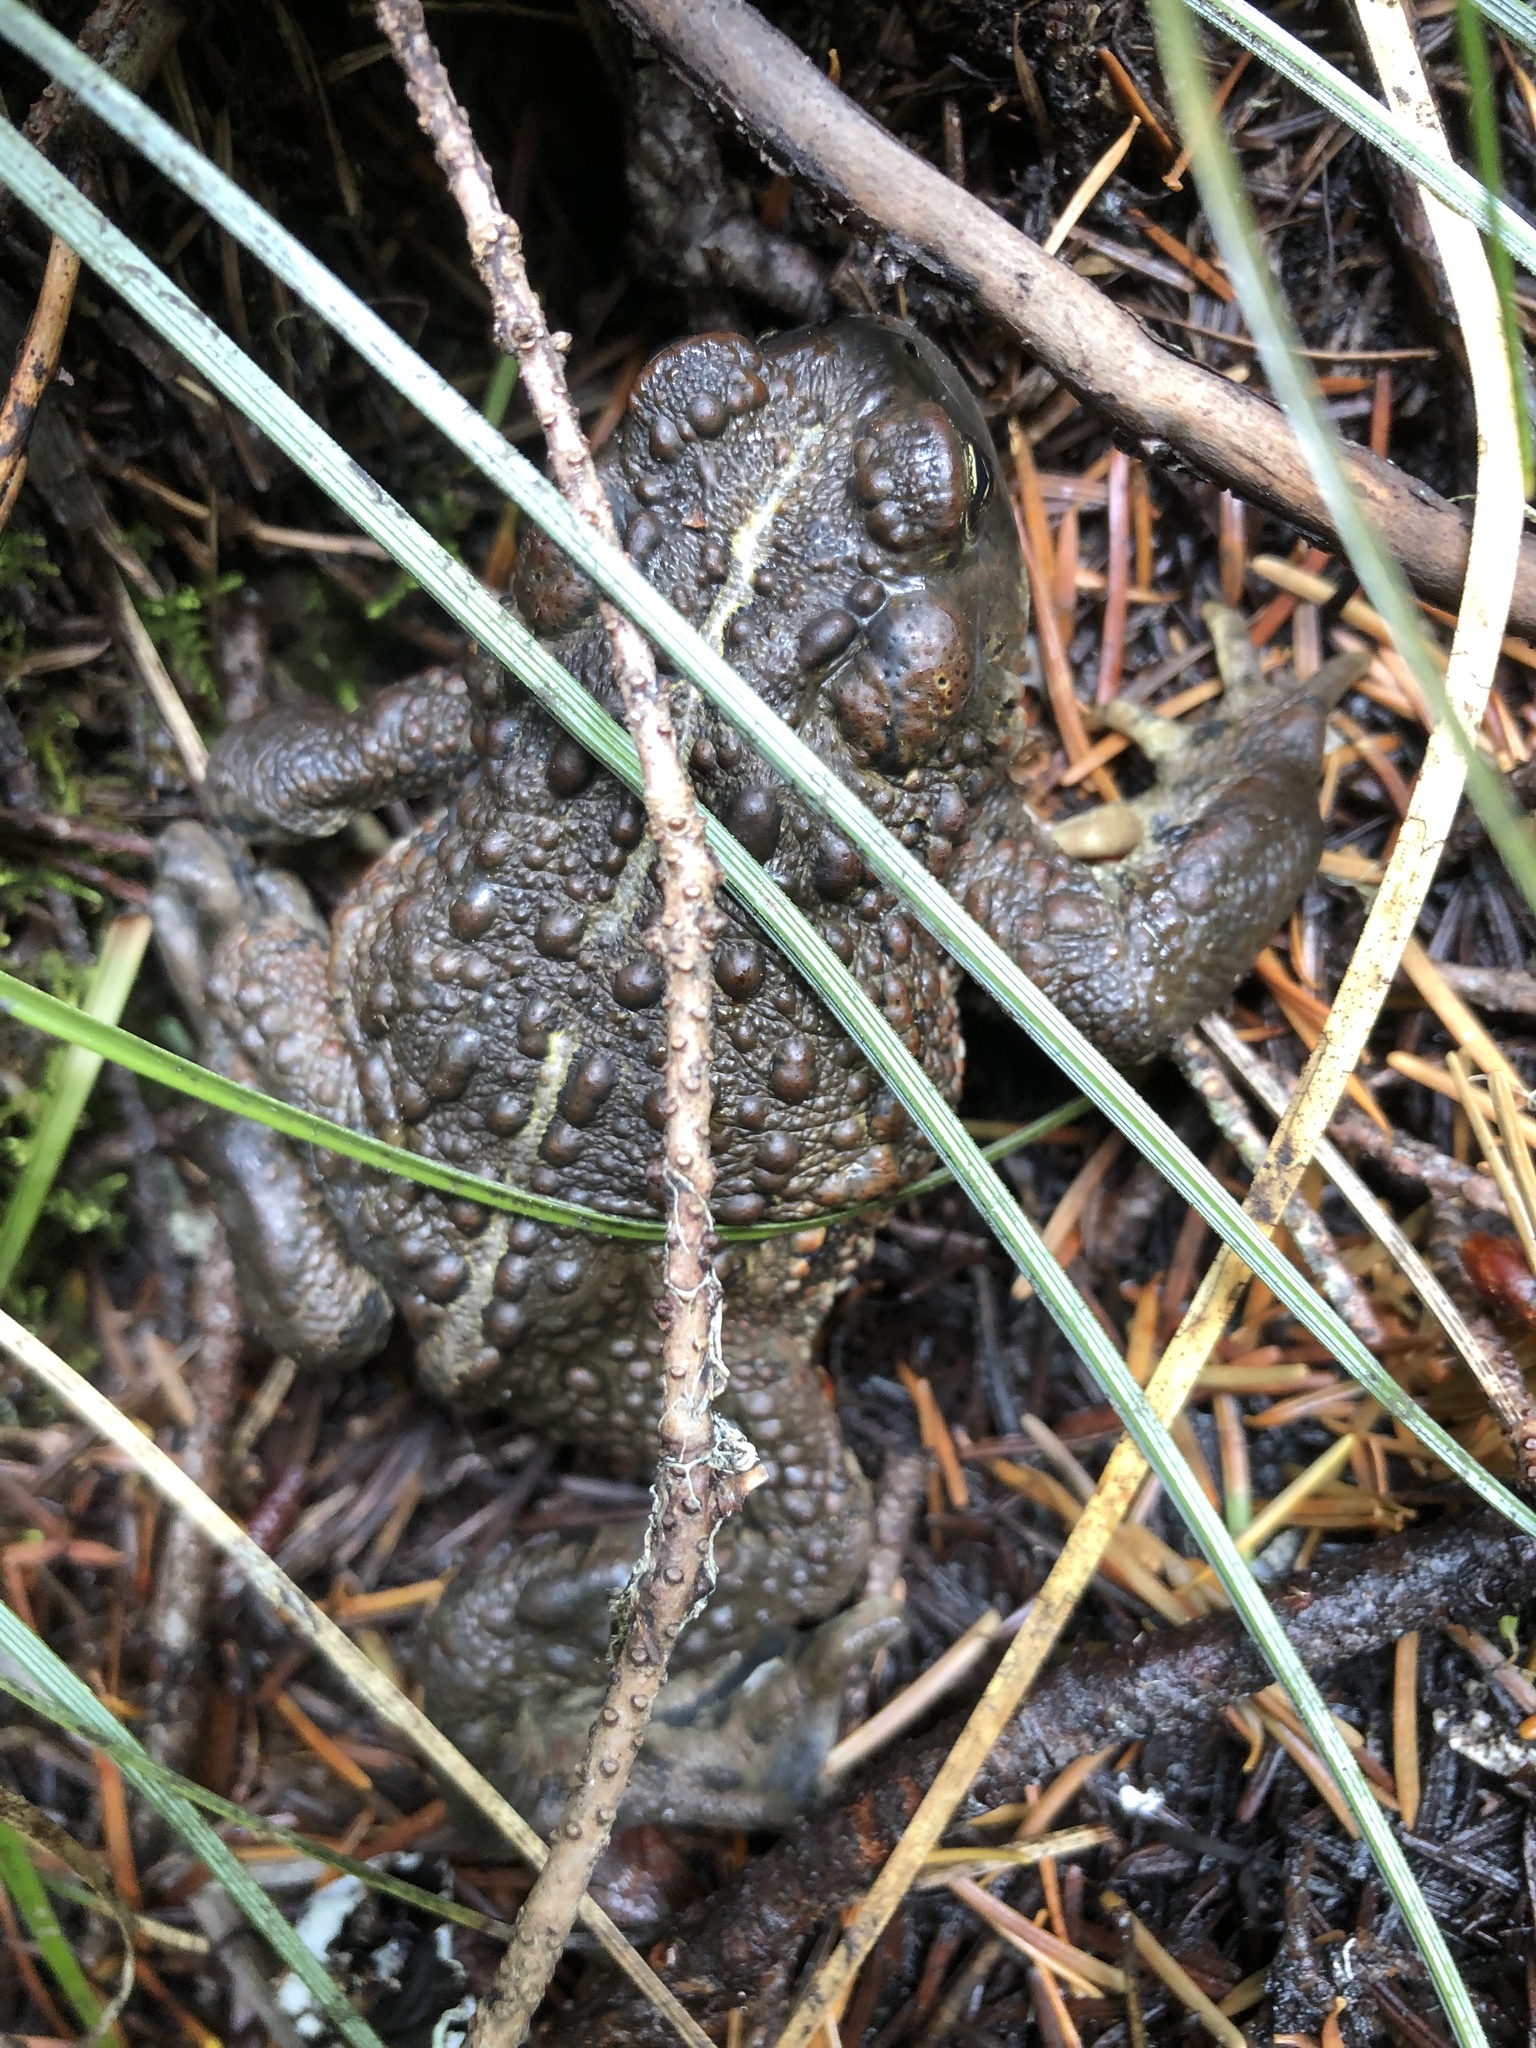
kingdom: Animalia
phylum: Chordata
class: Amphibia
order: Anura
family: Bufonidae
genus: Anaxyrus
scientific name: Anaxyrus boreas
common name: Western toad
